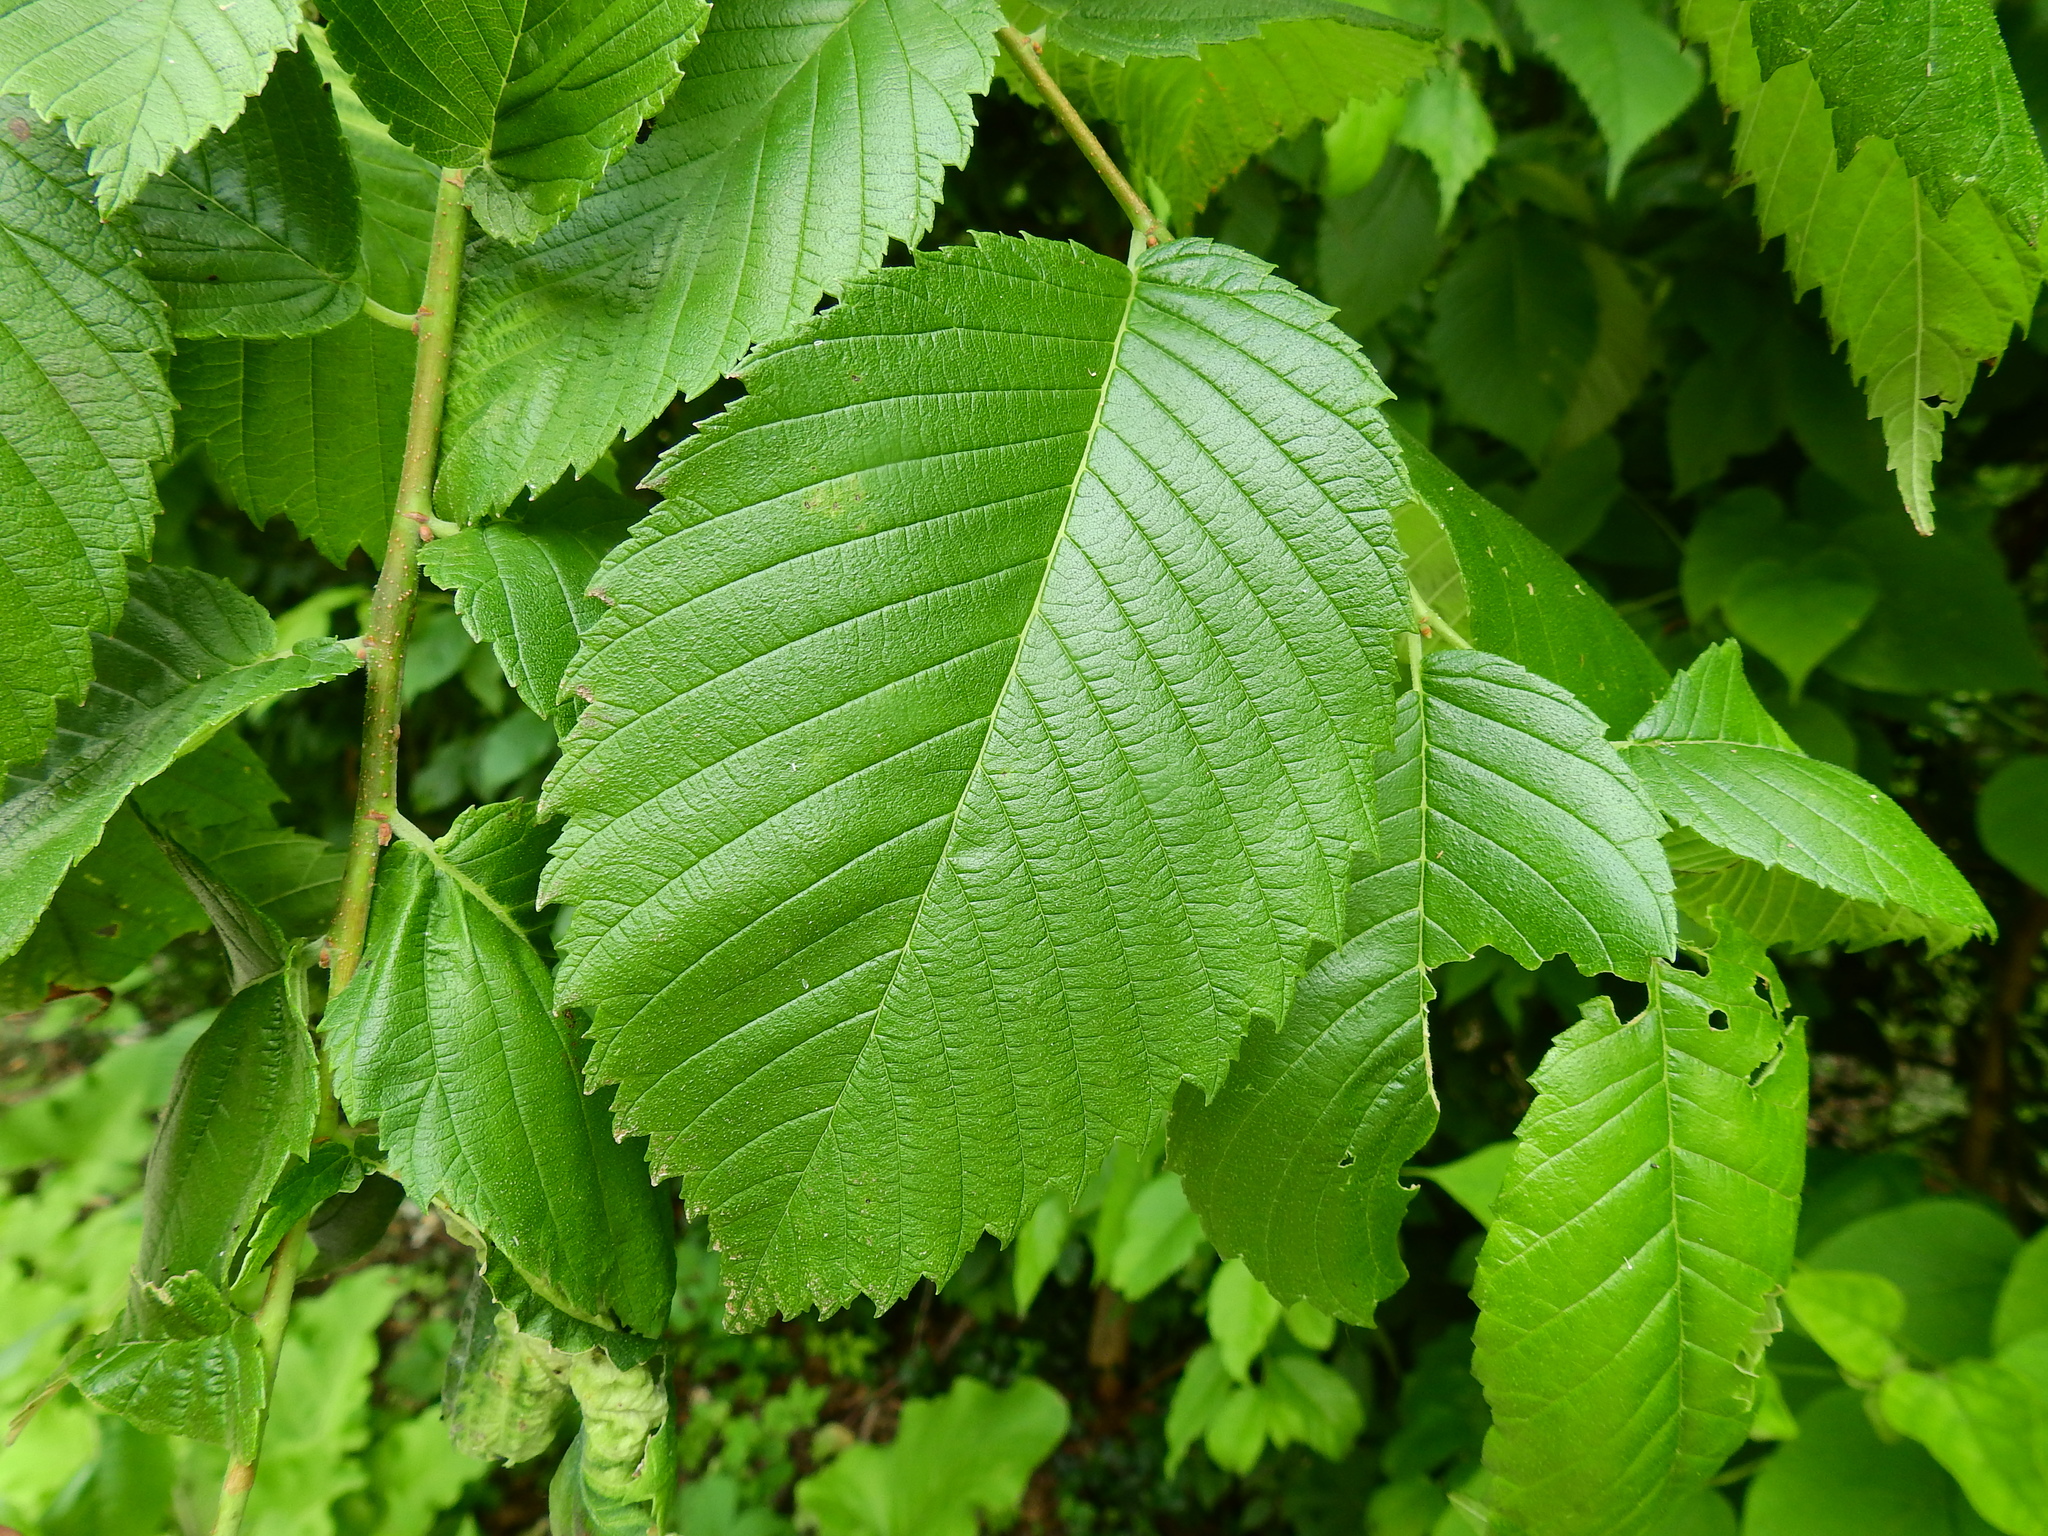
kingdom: Plantae
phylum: Tracheophyta
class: Magnoliopsida
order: Rosales
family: Ulmaceae
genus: Ulmus
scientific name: Ulmus americana
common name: American elm
